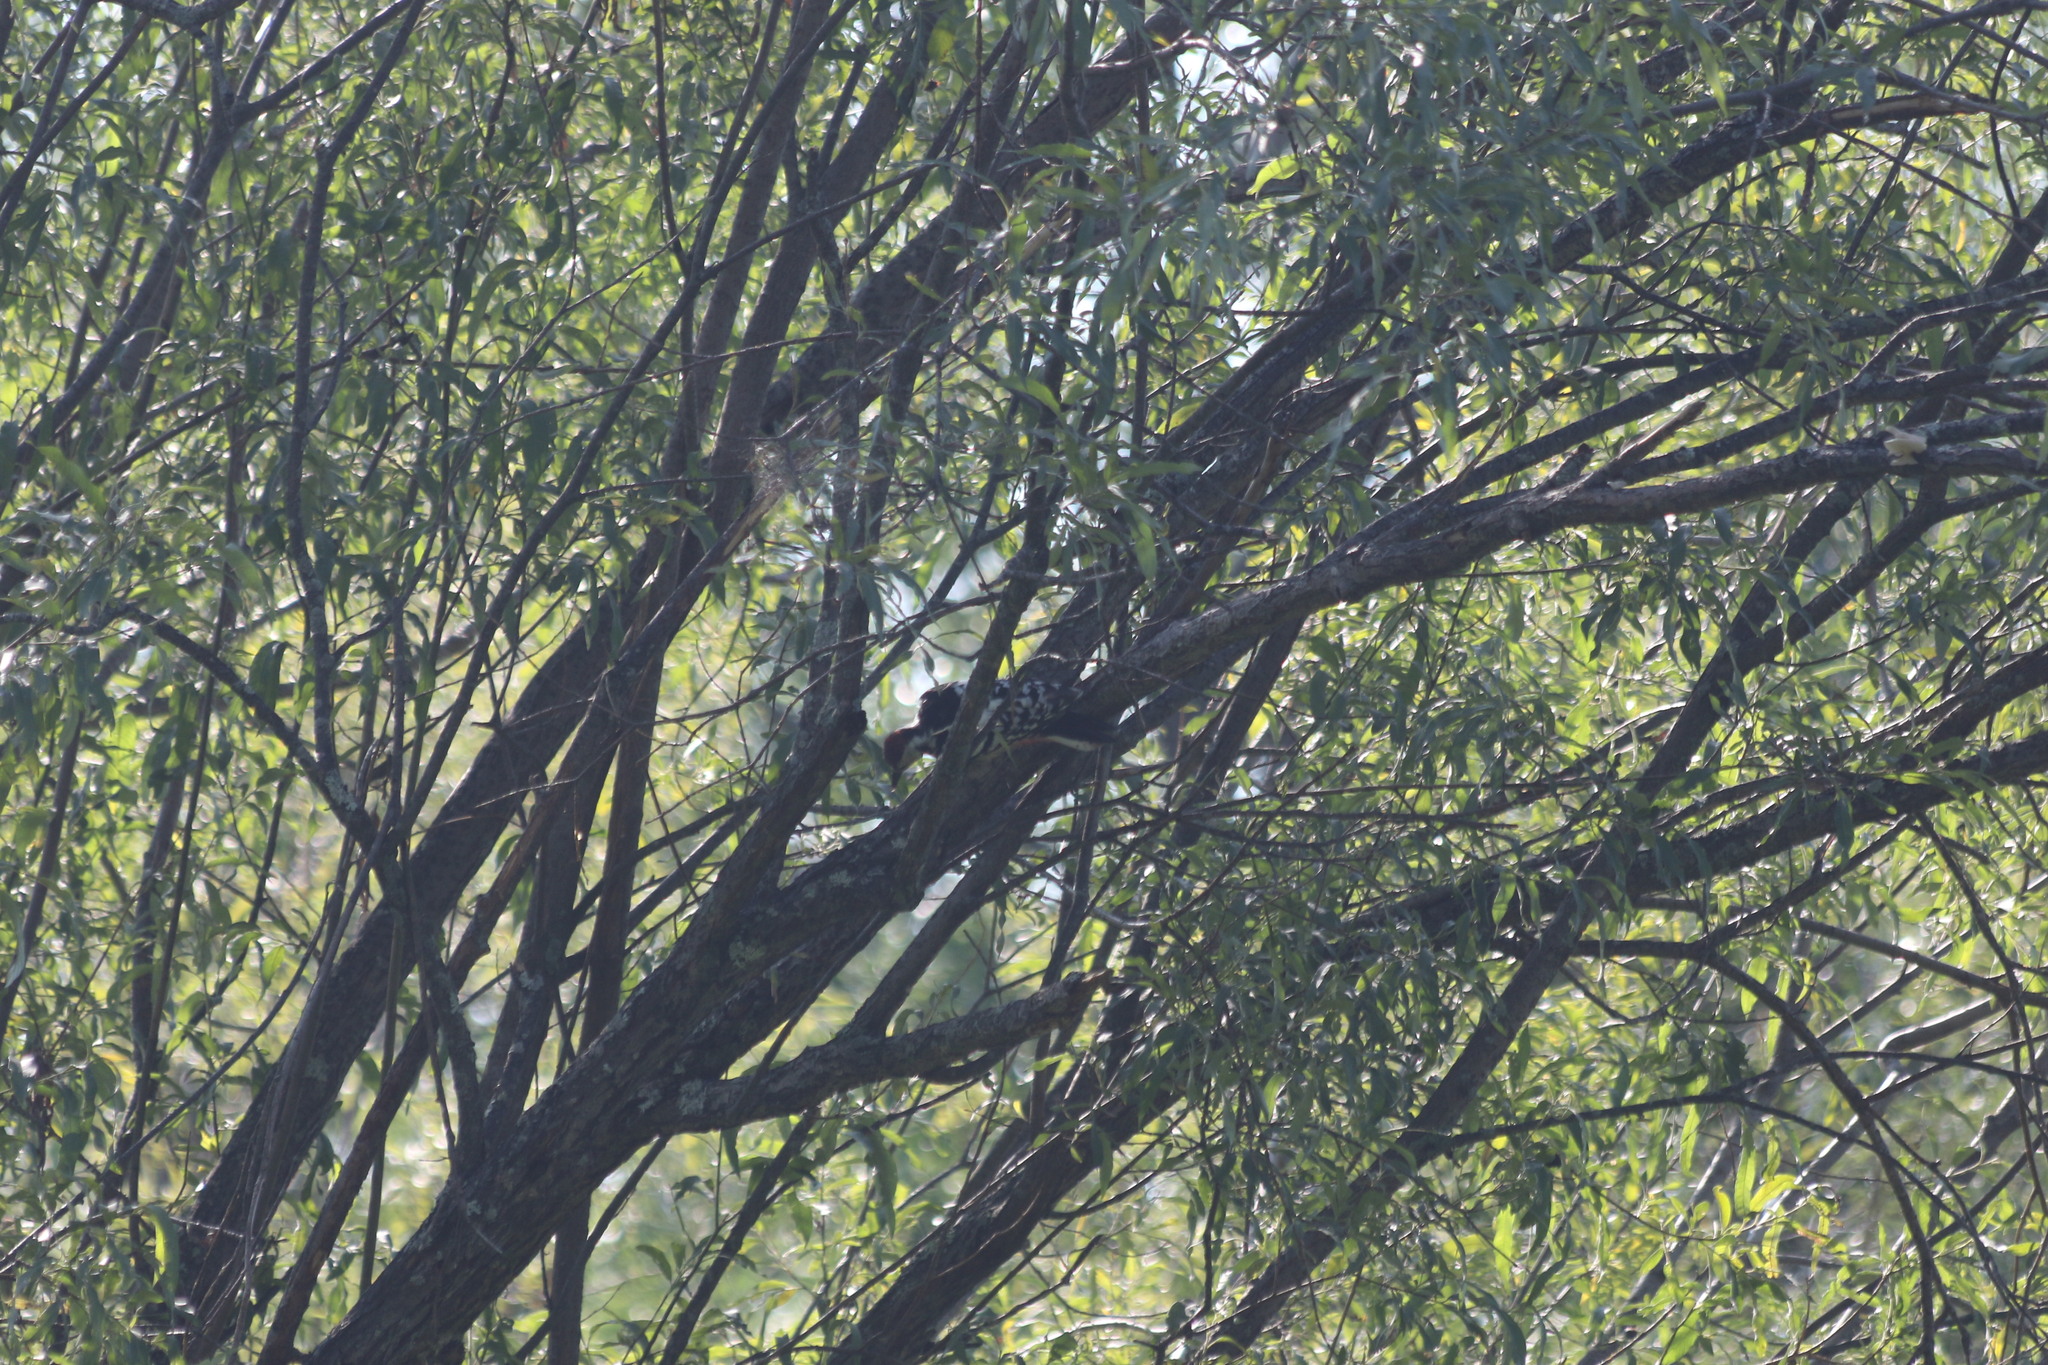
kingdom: Animalia
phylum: Chordata
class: Aves
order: Piciformes
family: Picidae
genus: Dendrocopos
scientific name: Dendrocopos leucotos
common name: White-backed woodpecker
